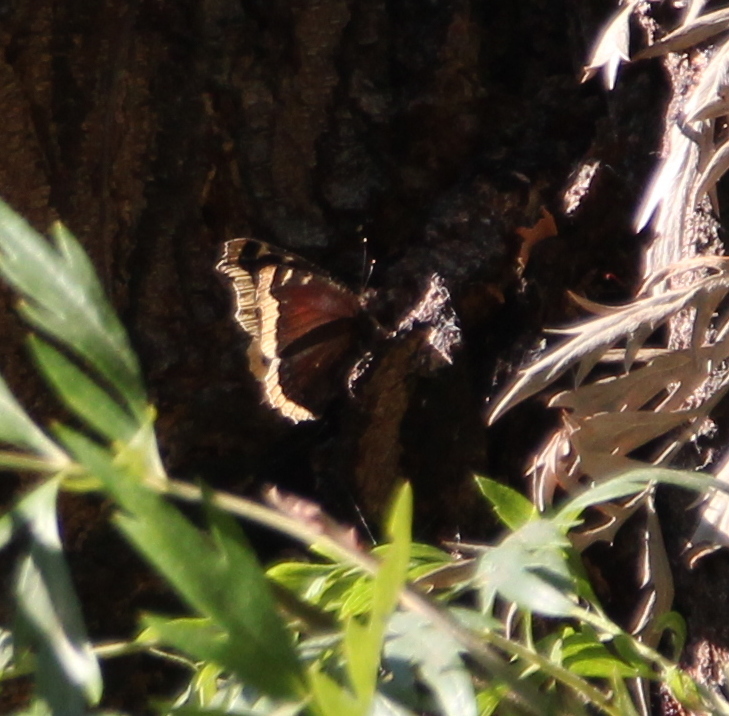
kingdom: Animalia
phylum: Arthropoda
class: Insecta
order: Lepidoptera
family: Nymphalidae
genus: Nymphalis
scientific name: Nymphalis antiopa
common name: Camberwell beauty
